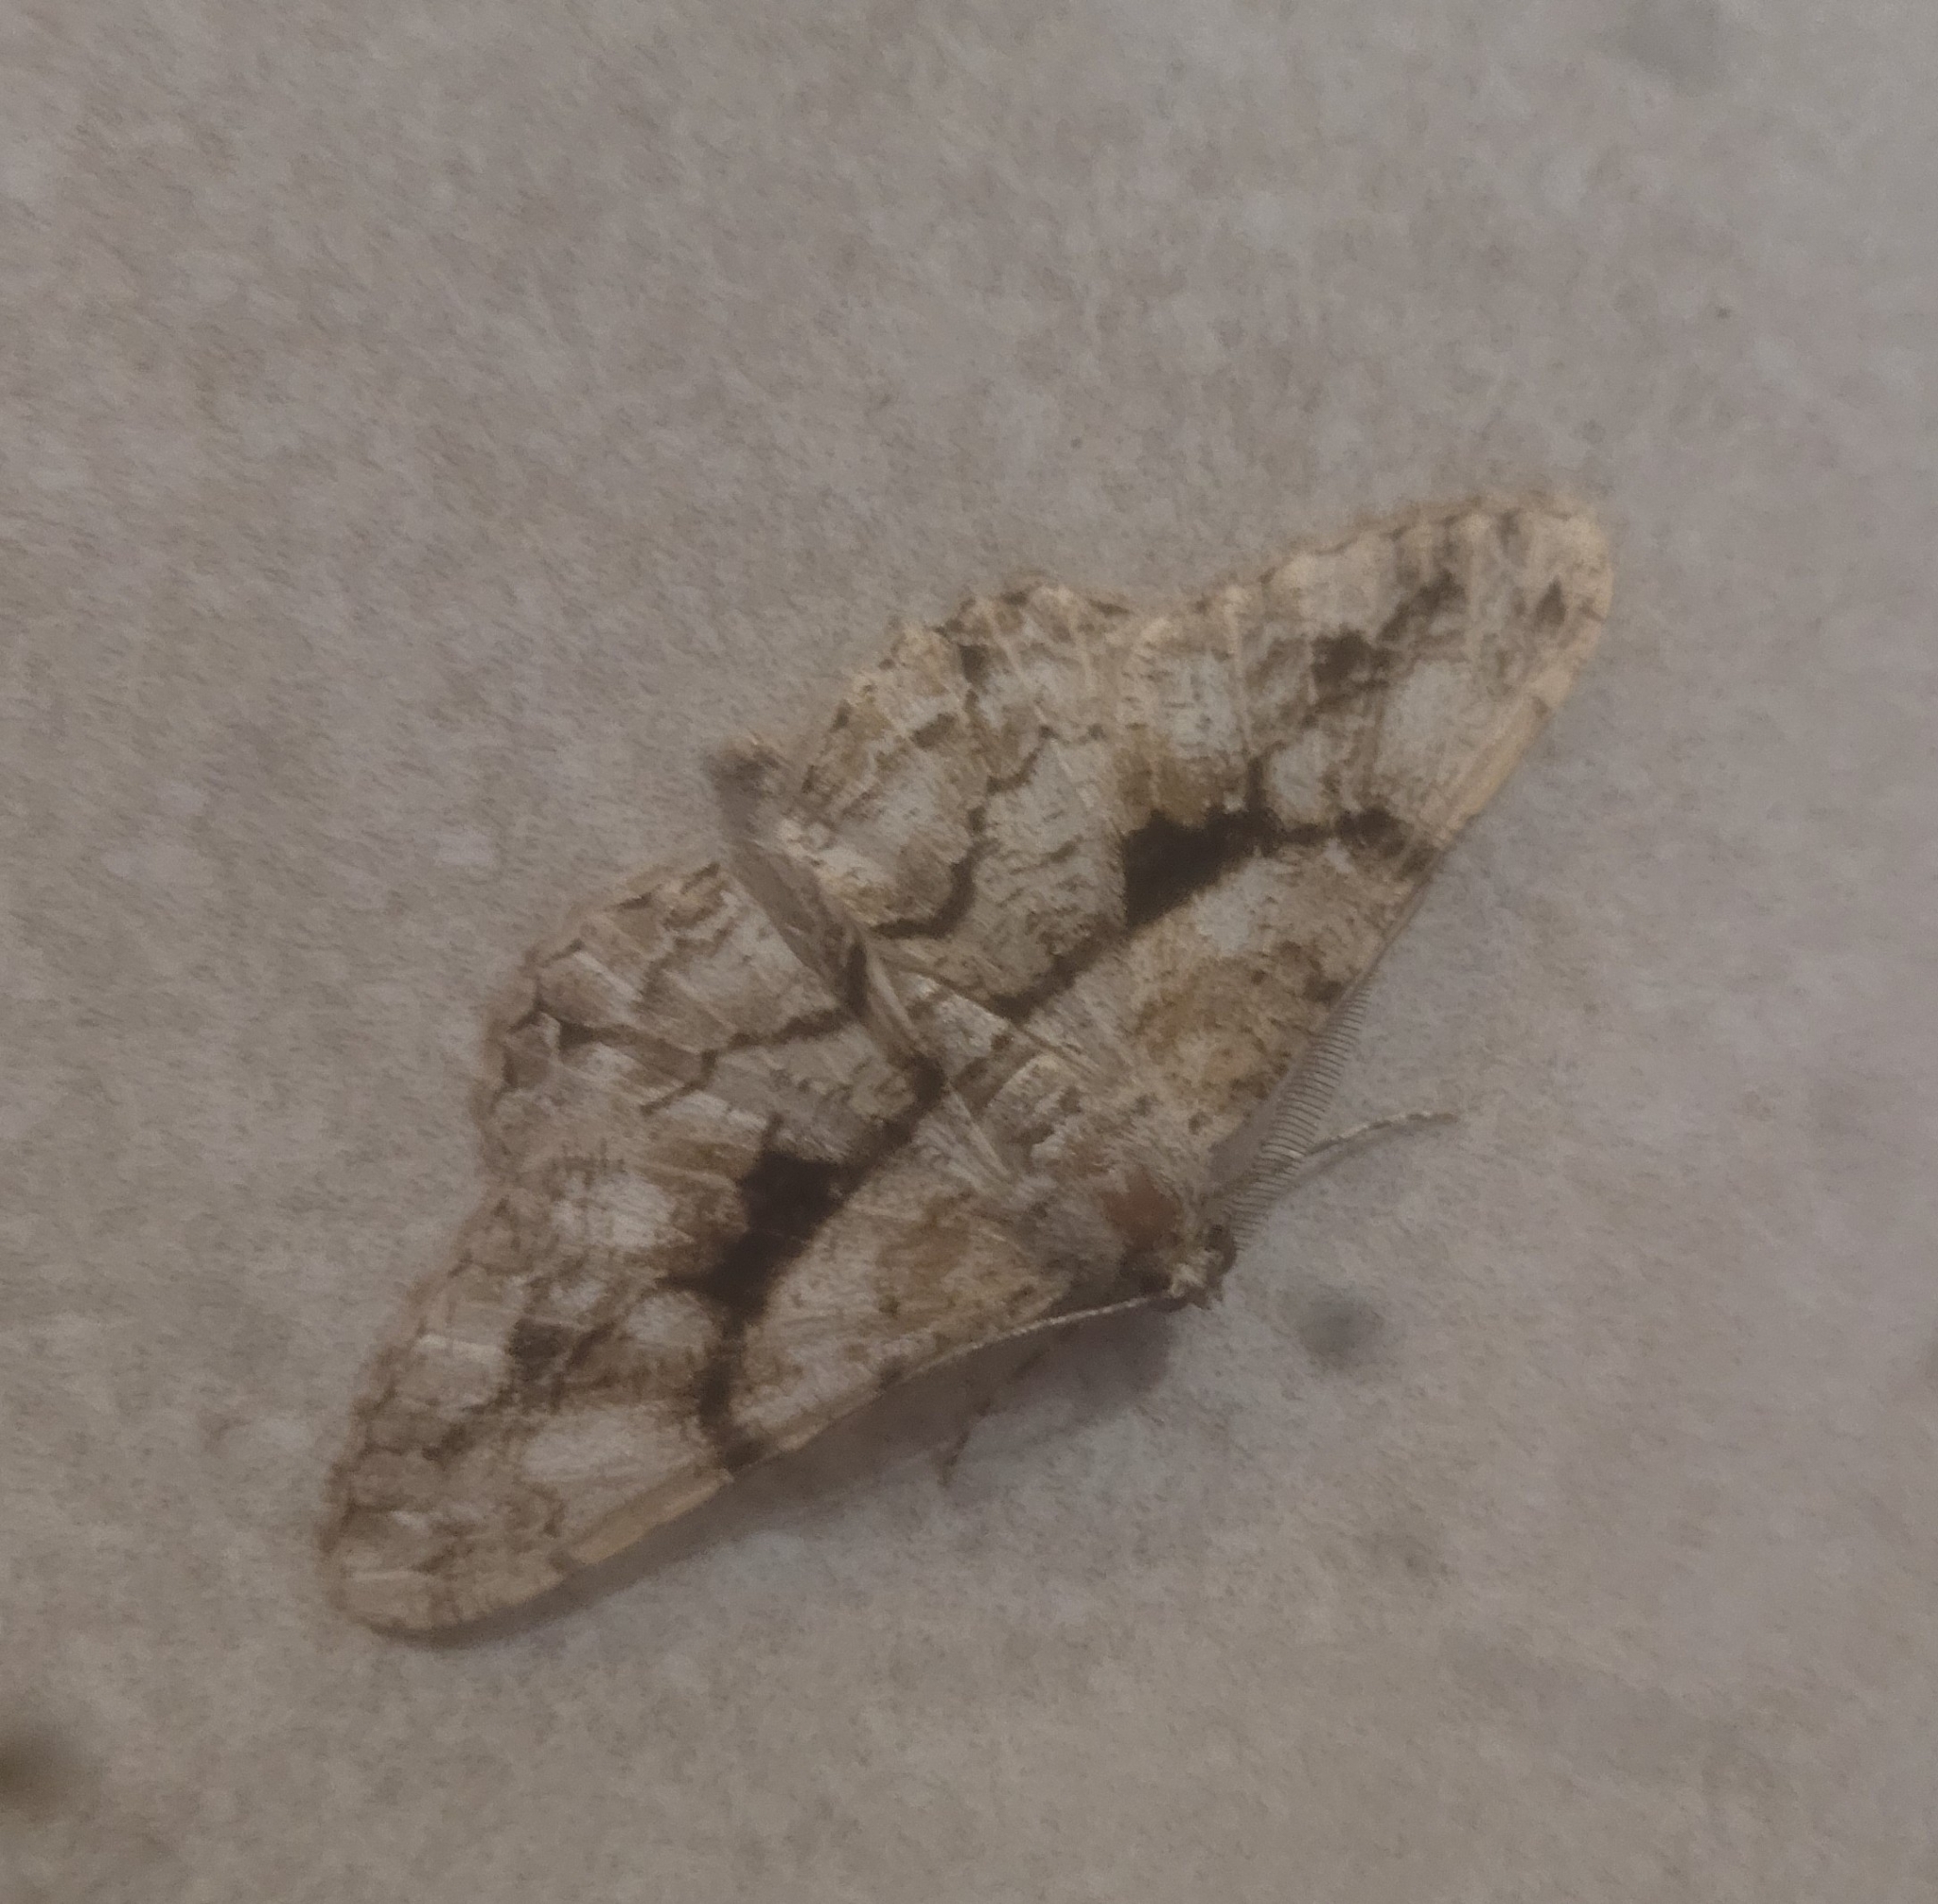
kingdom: Animalia
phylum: Arthropoda
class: Insecta
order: Lepidoptera
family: Geometridae
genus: Peribatodes
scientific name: Peribatodes umbraria
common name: Olive-tree beauty
